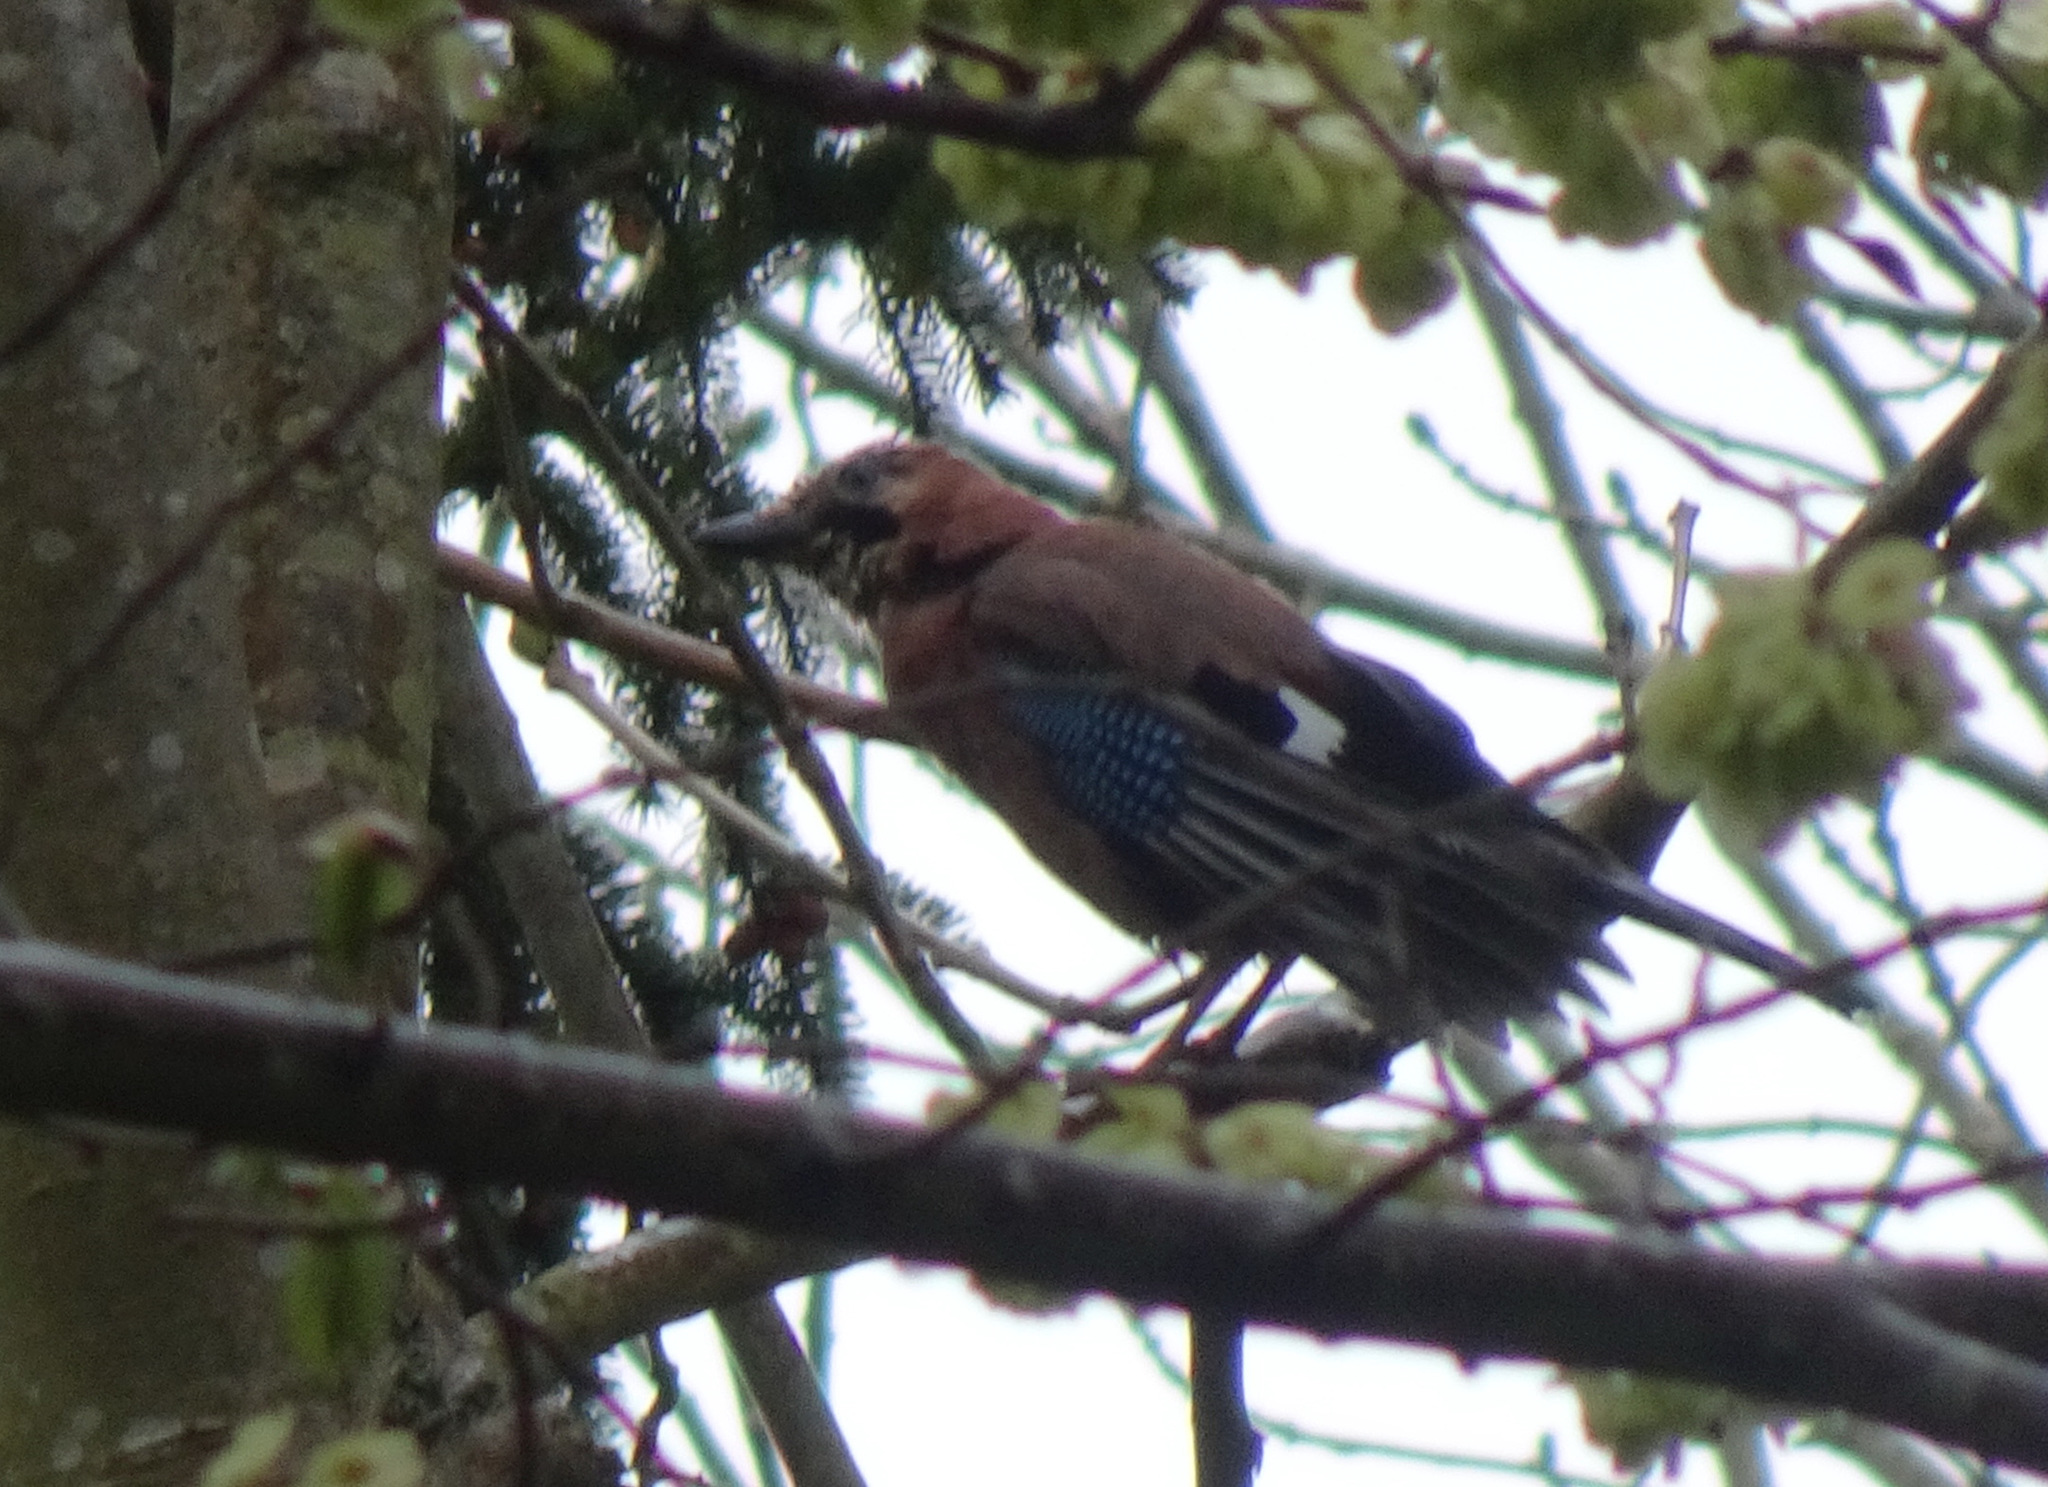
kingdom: Animalia
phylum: Chordata
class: Aves
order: Passeriformes
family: Corvidae
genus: Garrulus
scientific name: Garrulus glandarius
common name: Eurasian jay
